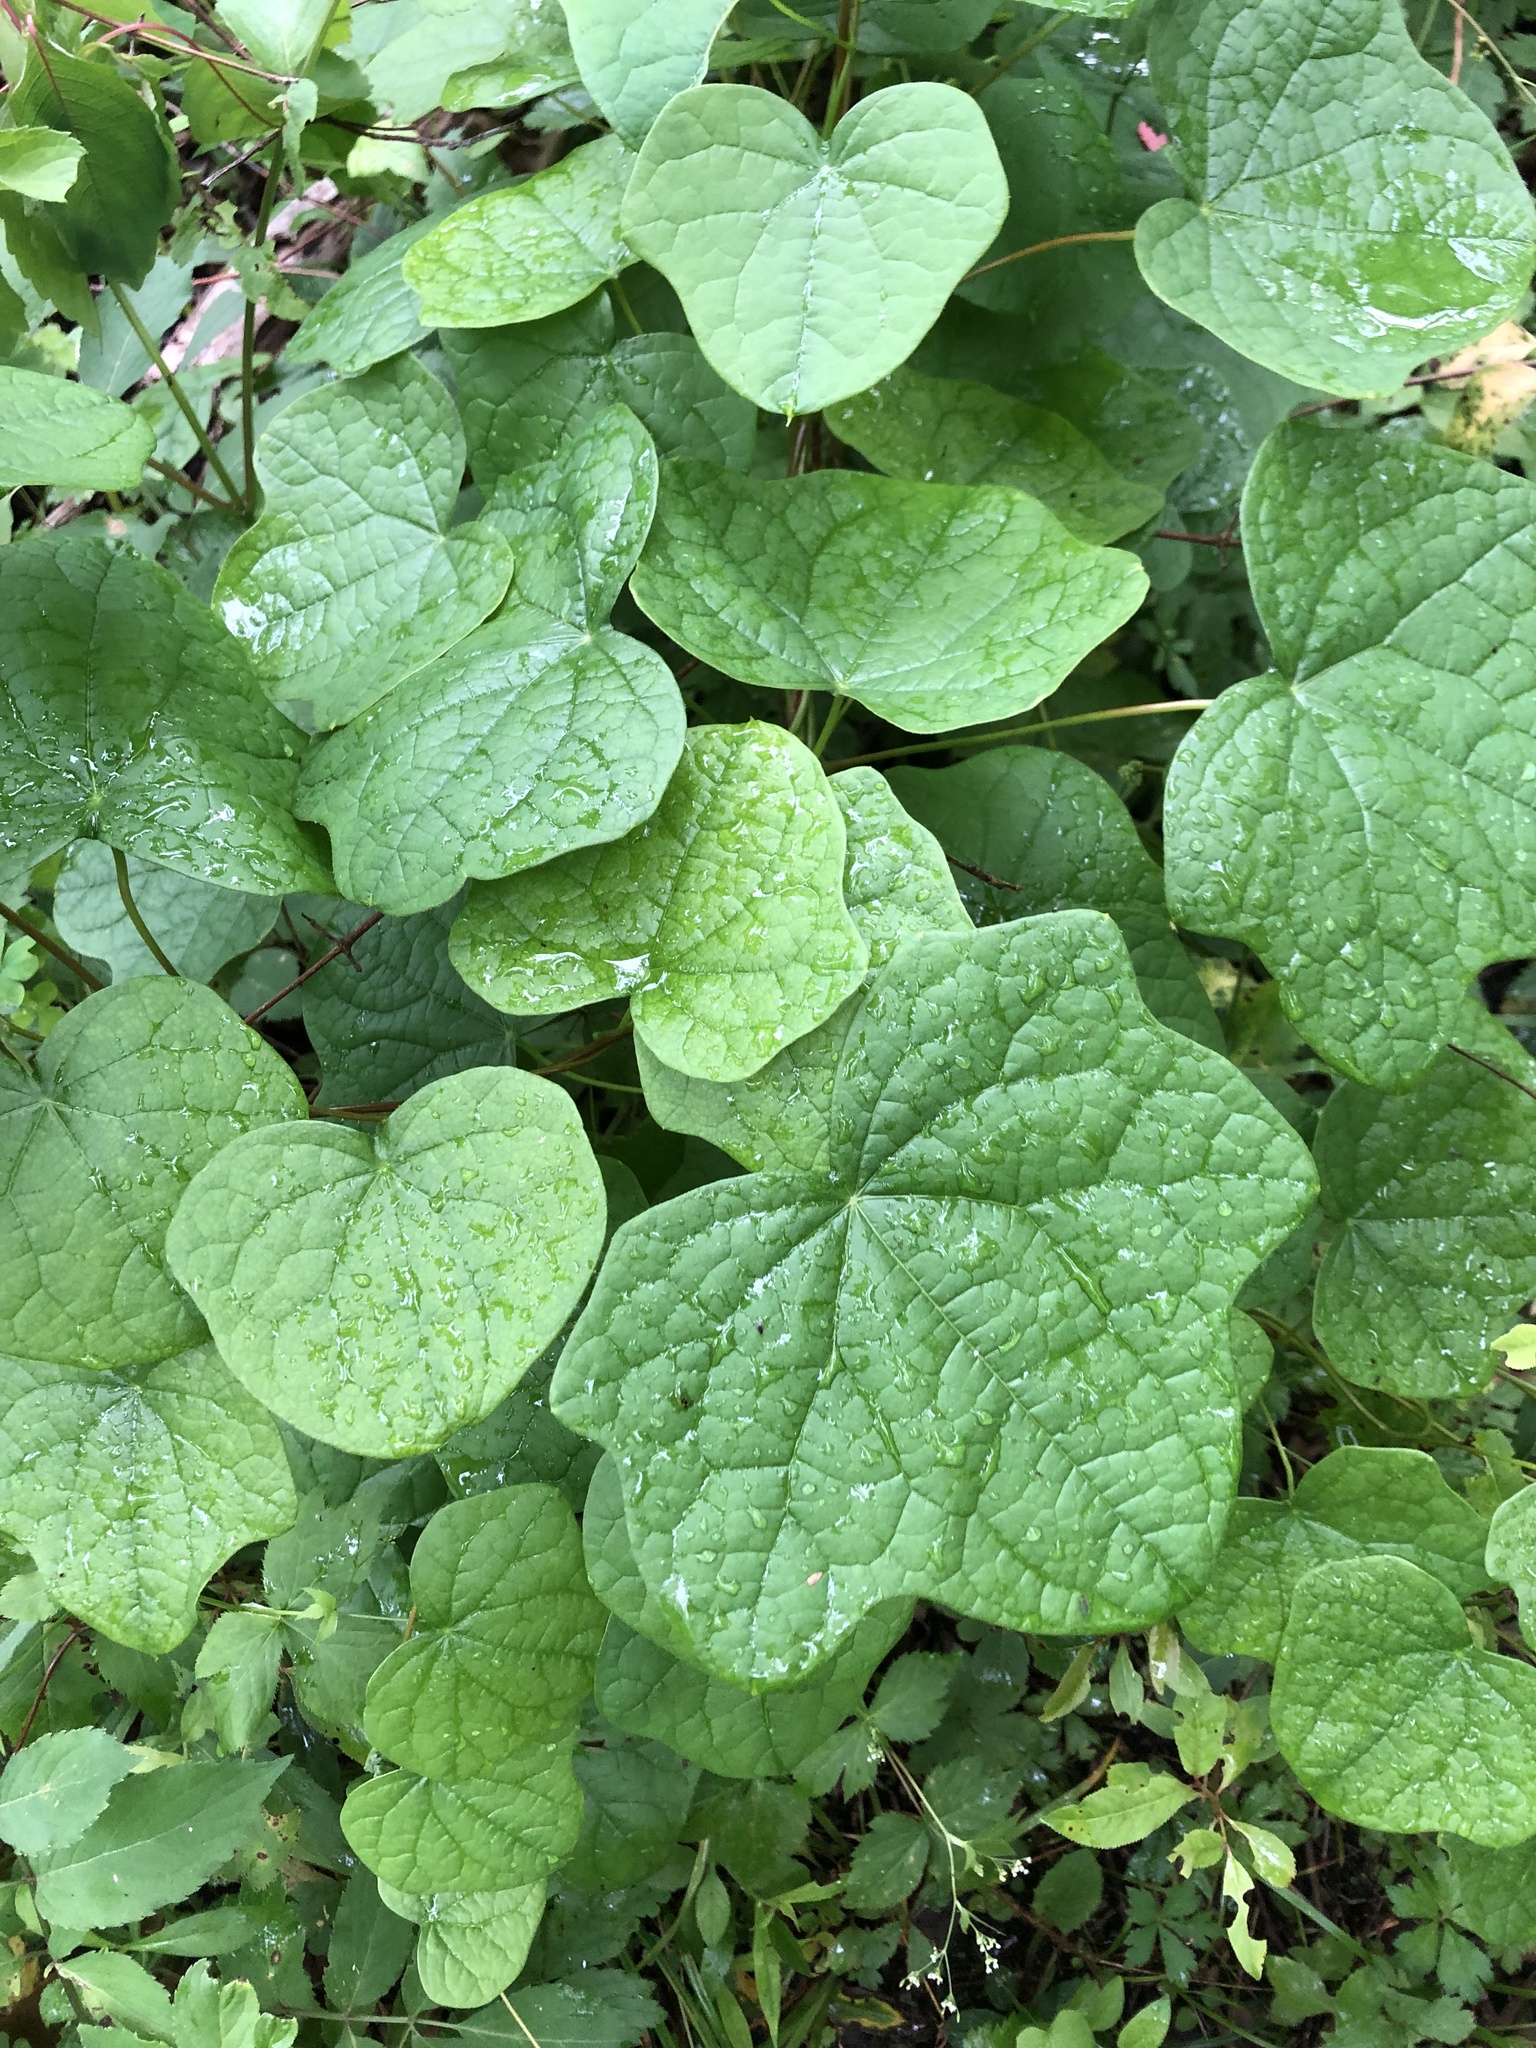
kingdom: Plantae
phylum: Tracheophyta
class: Magnoliopsida
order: Ranunculales
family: Menispermaceae
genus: Menispermum
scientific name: Menispermum canadense
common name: Moonseed
